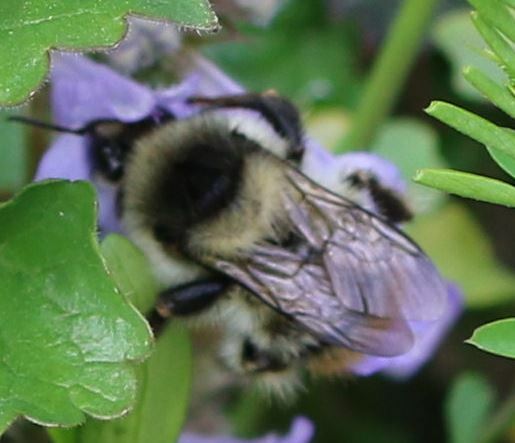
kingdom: Animalia
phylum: Arthropoda
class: Insecta
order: Hymenoptera
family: Apidae
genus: Bombus
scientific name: Bombus sylvarum
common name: Shrill carder bee
